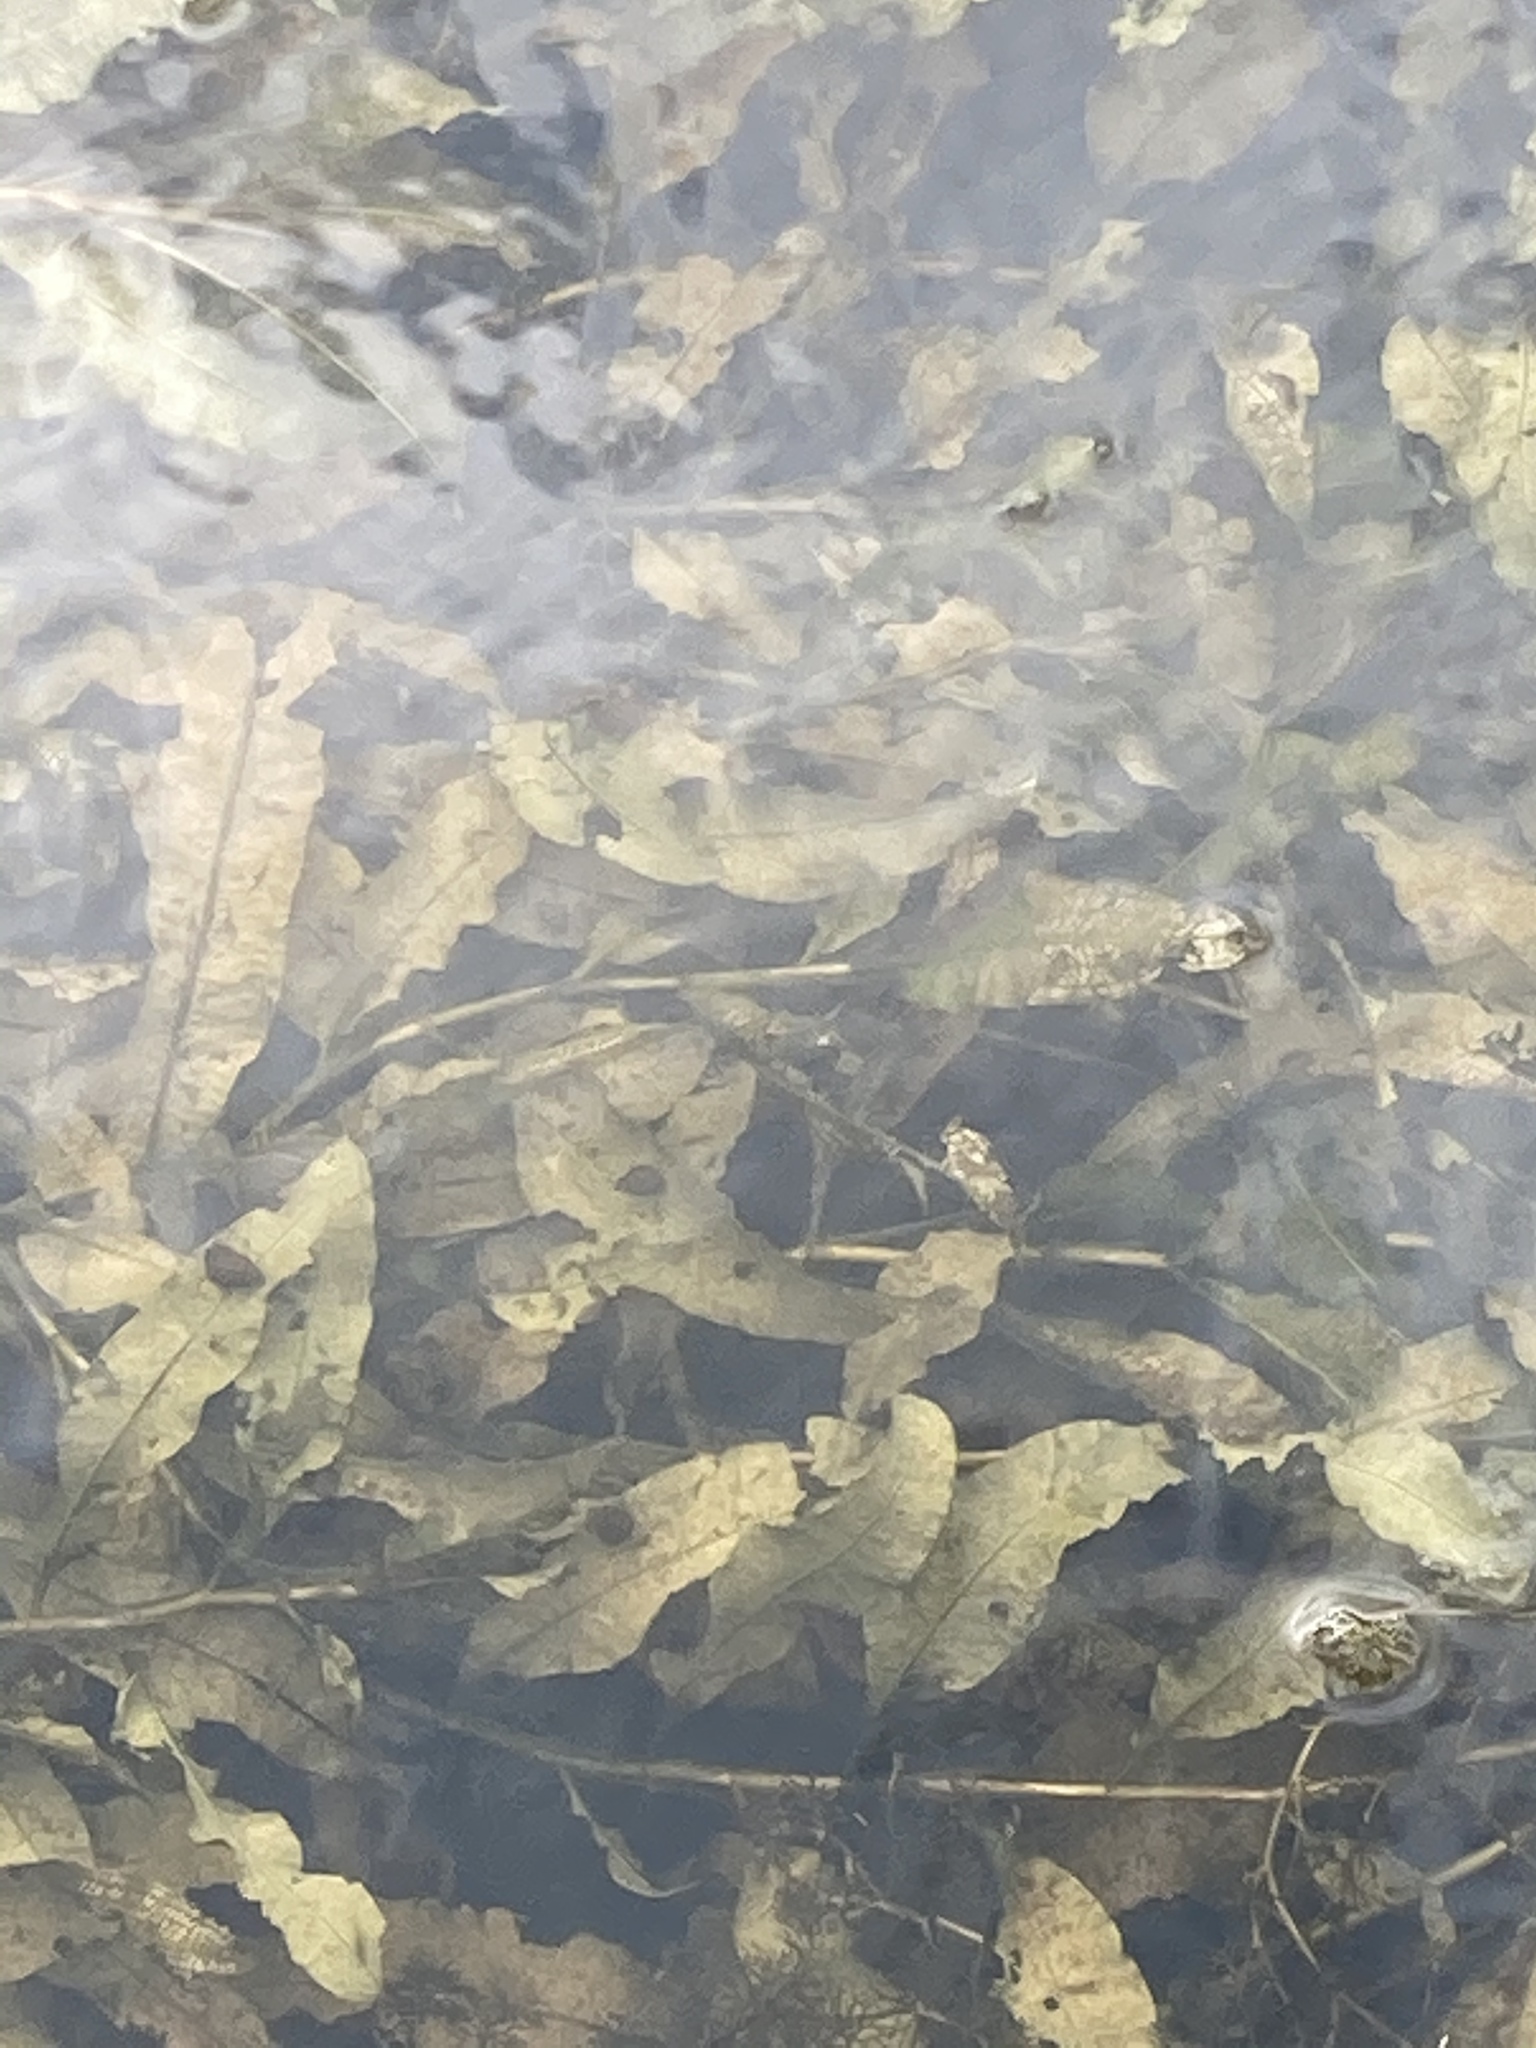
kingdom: Plantae
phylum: Tracheophyta
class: Liliopsida
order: Alismatales
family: Potamogetonaceae
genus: Potamogeton
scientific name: Potamogeton lucens
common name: Shining pondweed
